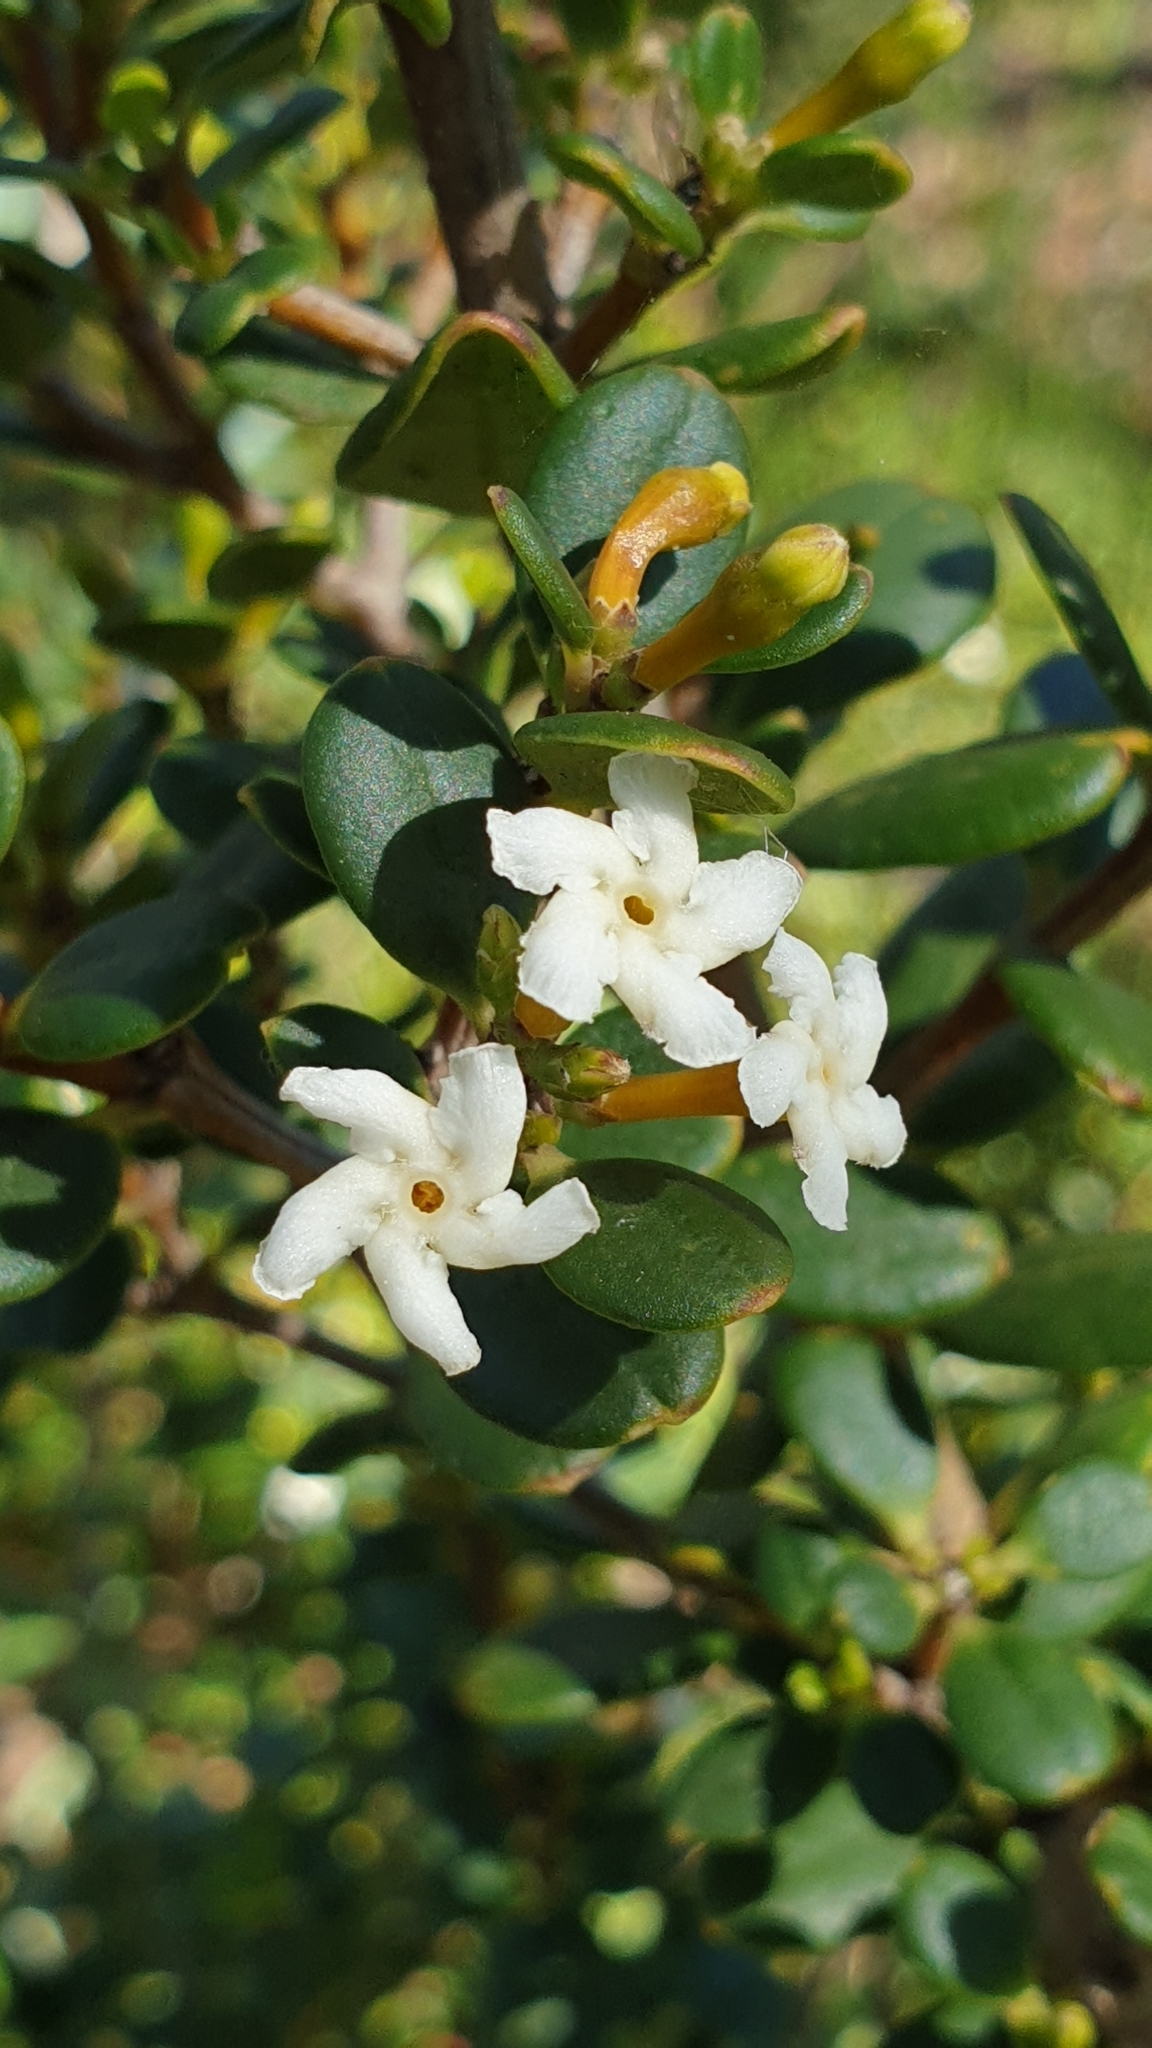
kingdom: Plantae
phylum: Tracheophyta
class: Magnoliopsida
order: Gentianales
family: Apocynaceae
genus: Alyxia
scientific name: Alyxia buxifolia
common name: Dysentery-bush
